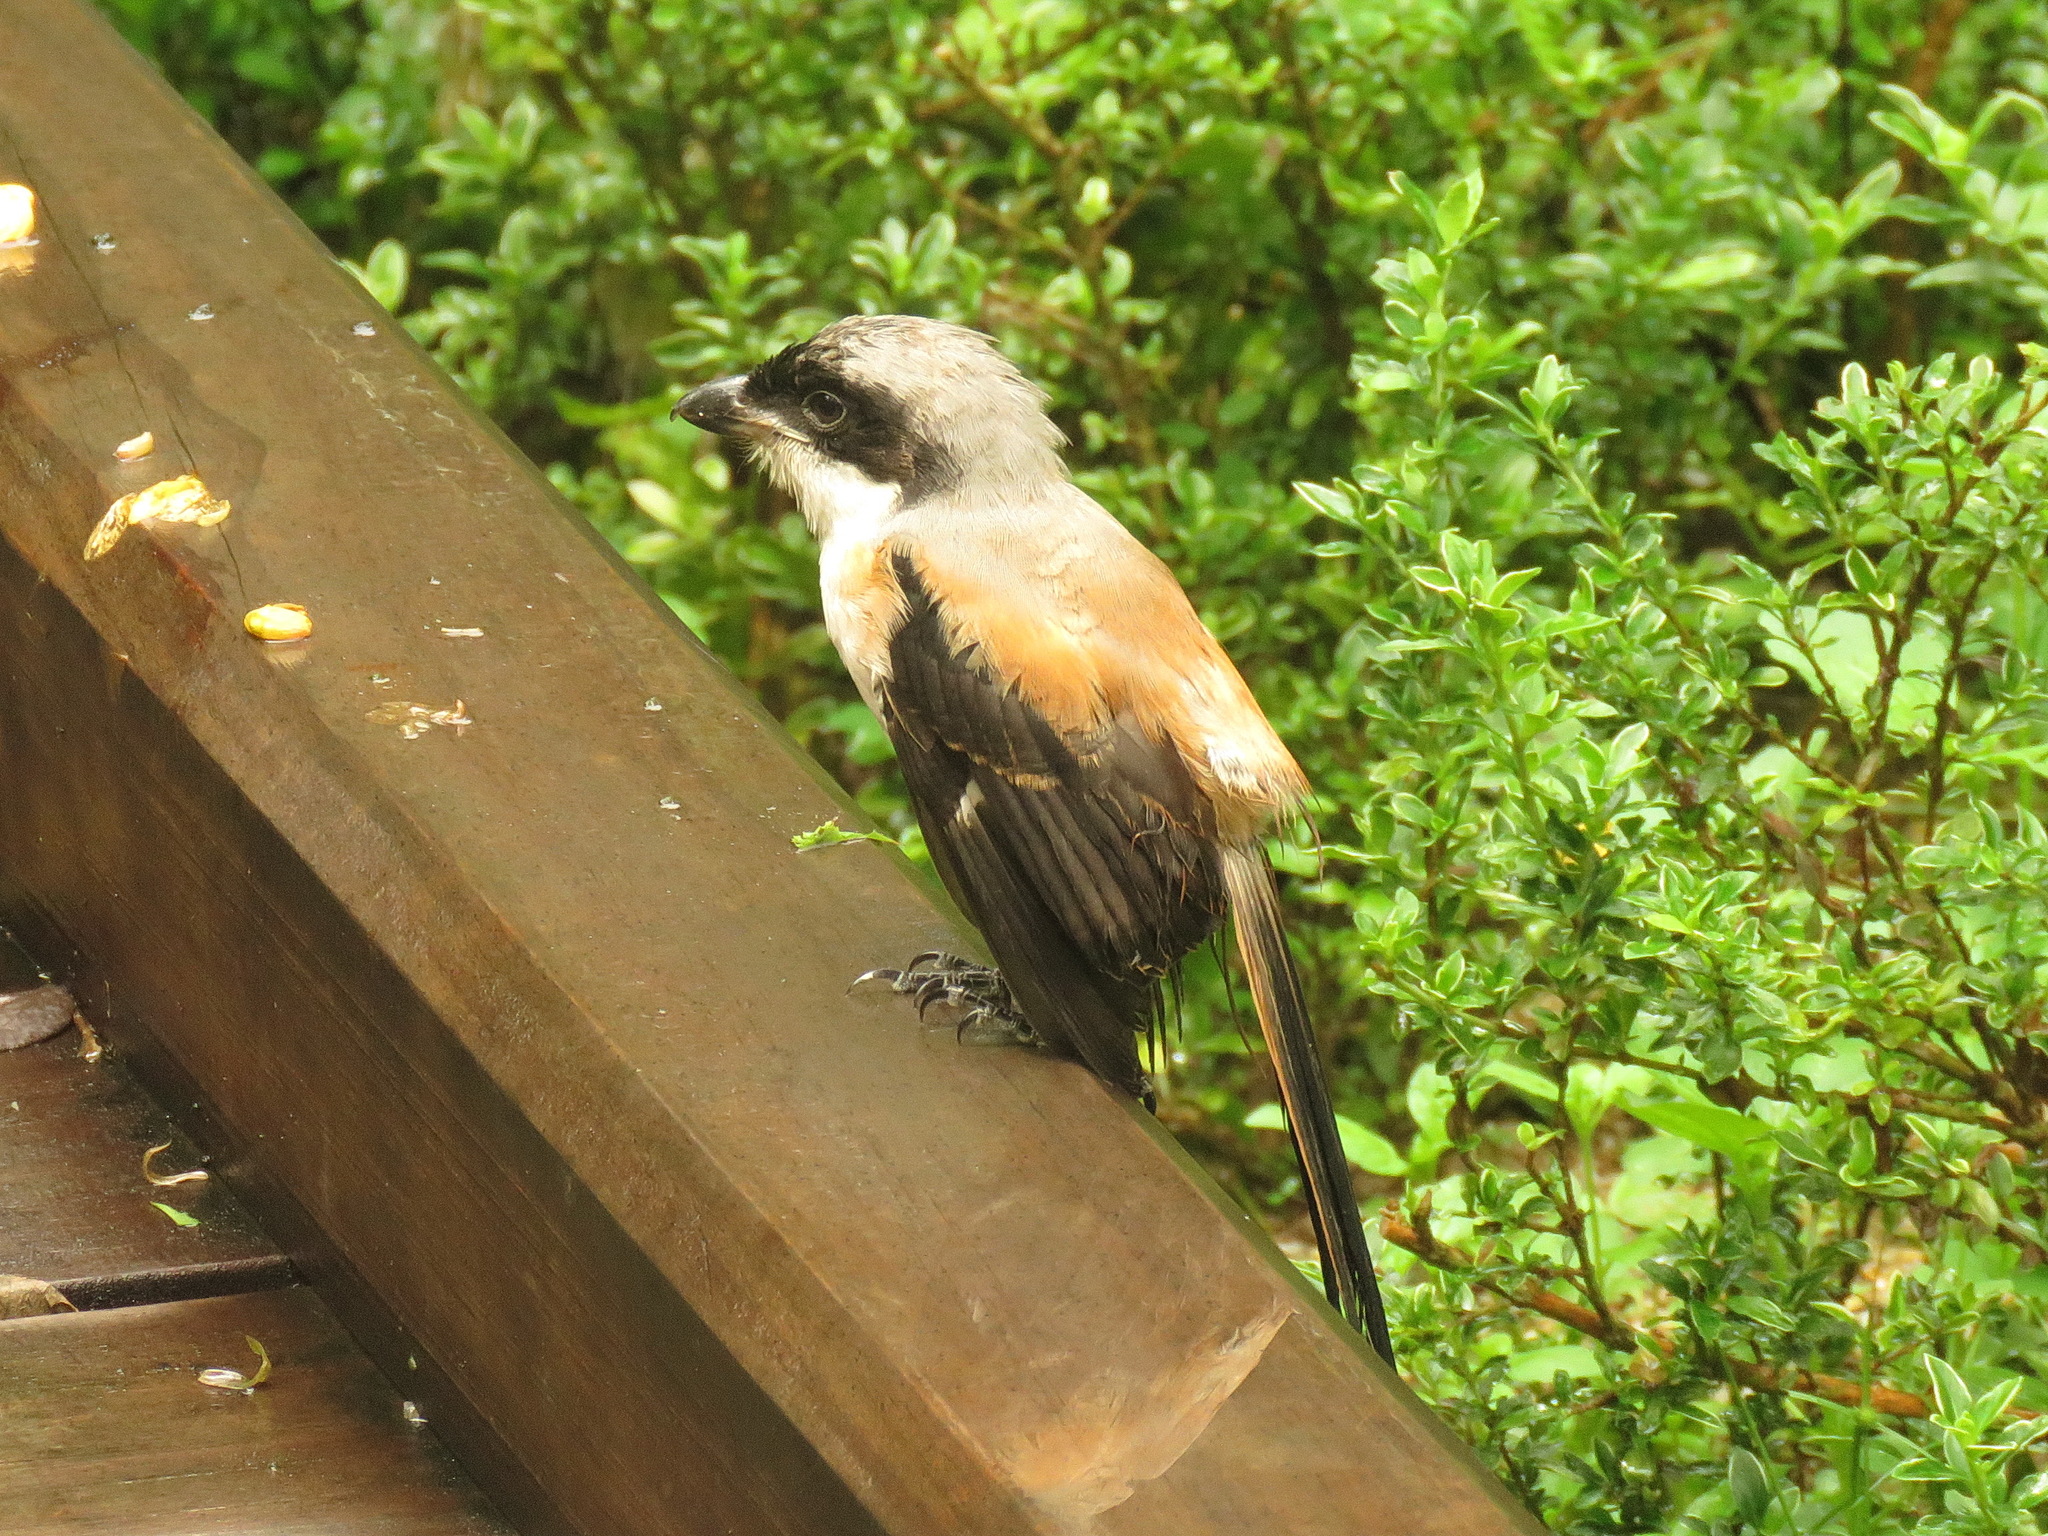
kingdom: Animalia
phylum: Chordata
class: Aves
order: Passeriformes
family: Laniidae
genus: Lanius
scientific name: Lanius schach
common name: Long-tailed shrike
